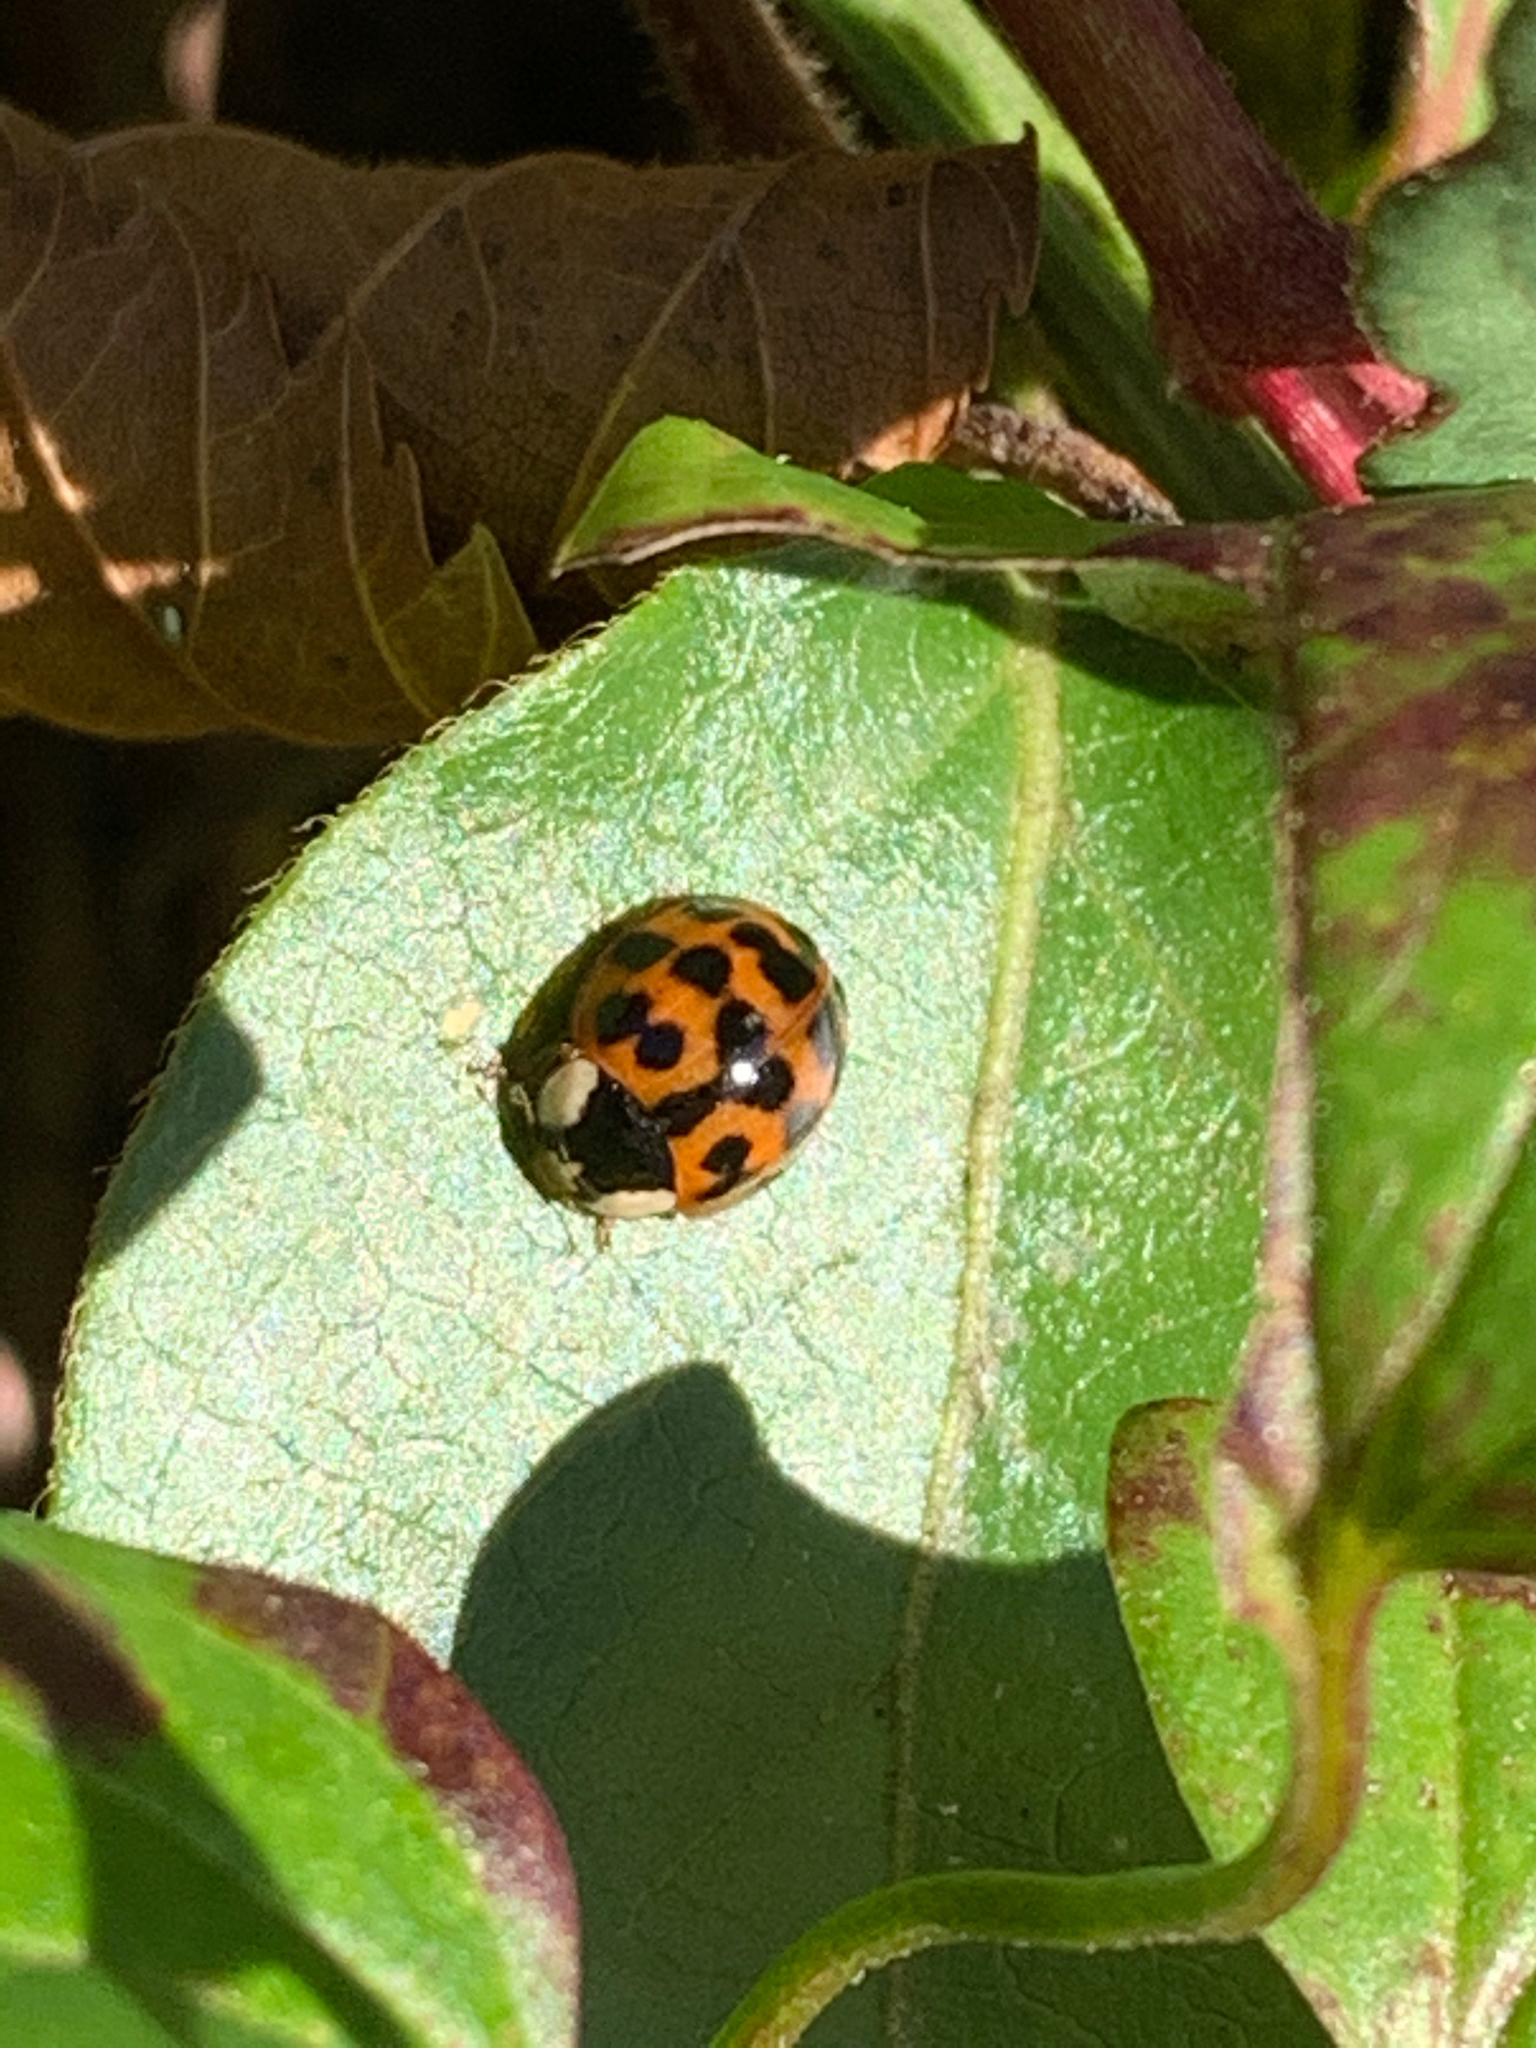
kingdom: Animalia
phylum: Arthropoda
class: Insecta
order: Coleoptera
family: Coccinellidae
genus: Harmonia
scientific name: Harmonia axyridis
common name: Harlequin ladybird
